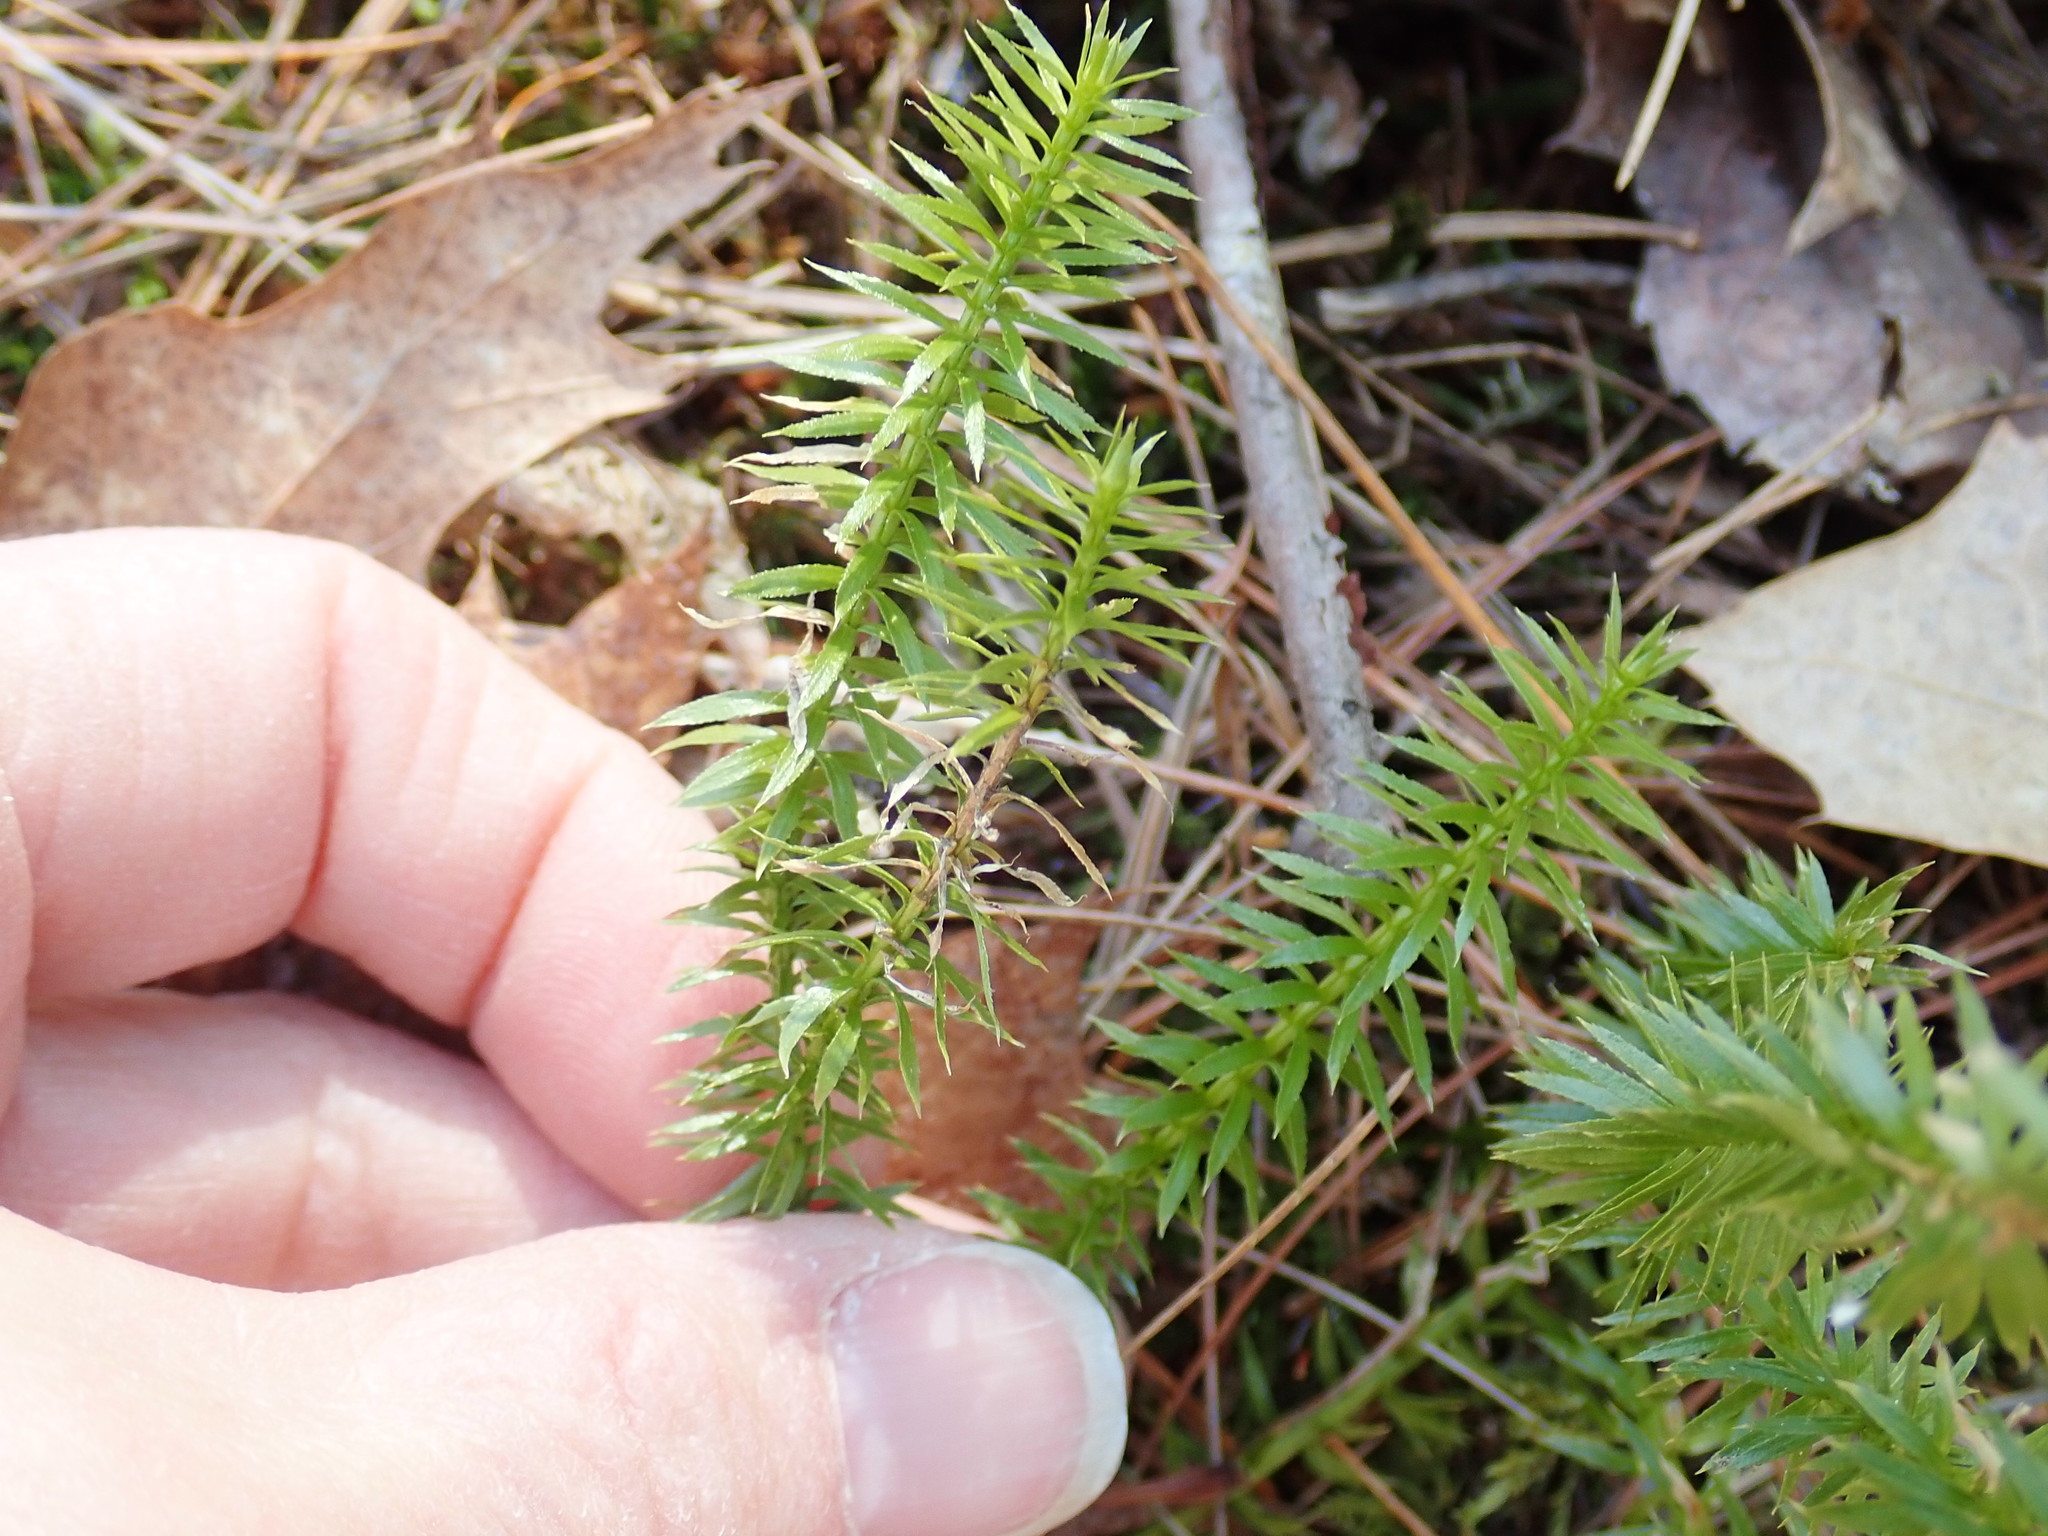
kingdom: Plantae
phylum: Tracheophyta
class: Lycopodiopsida
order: Lycopodiales
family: Lycopodiaceae
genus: Spinulum
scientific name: Spinulum annotinum
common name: Interrupted club-moss
